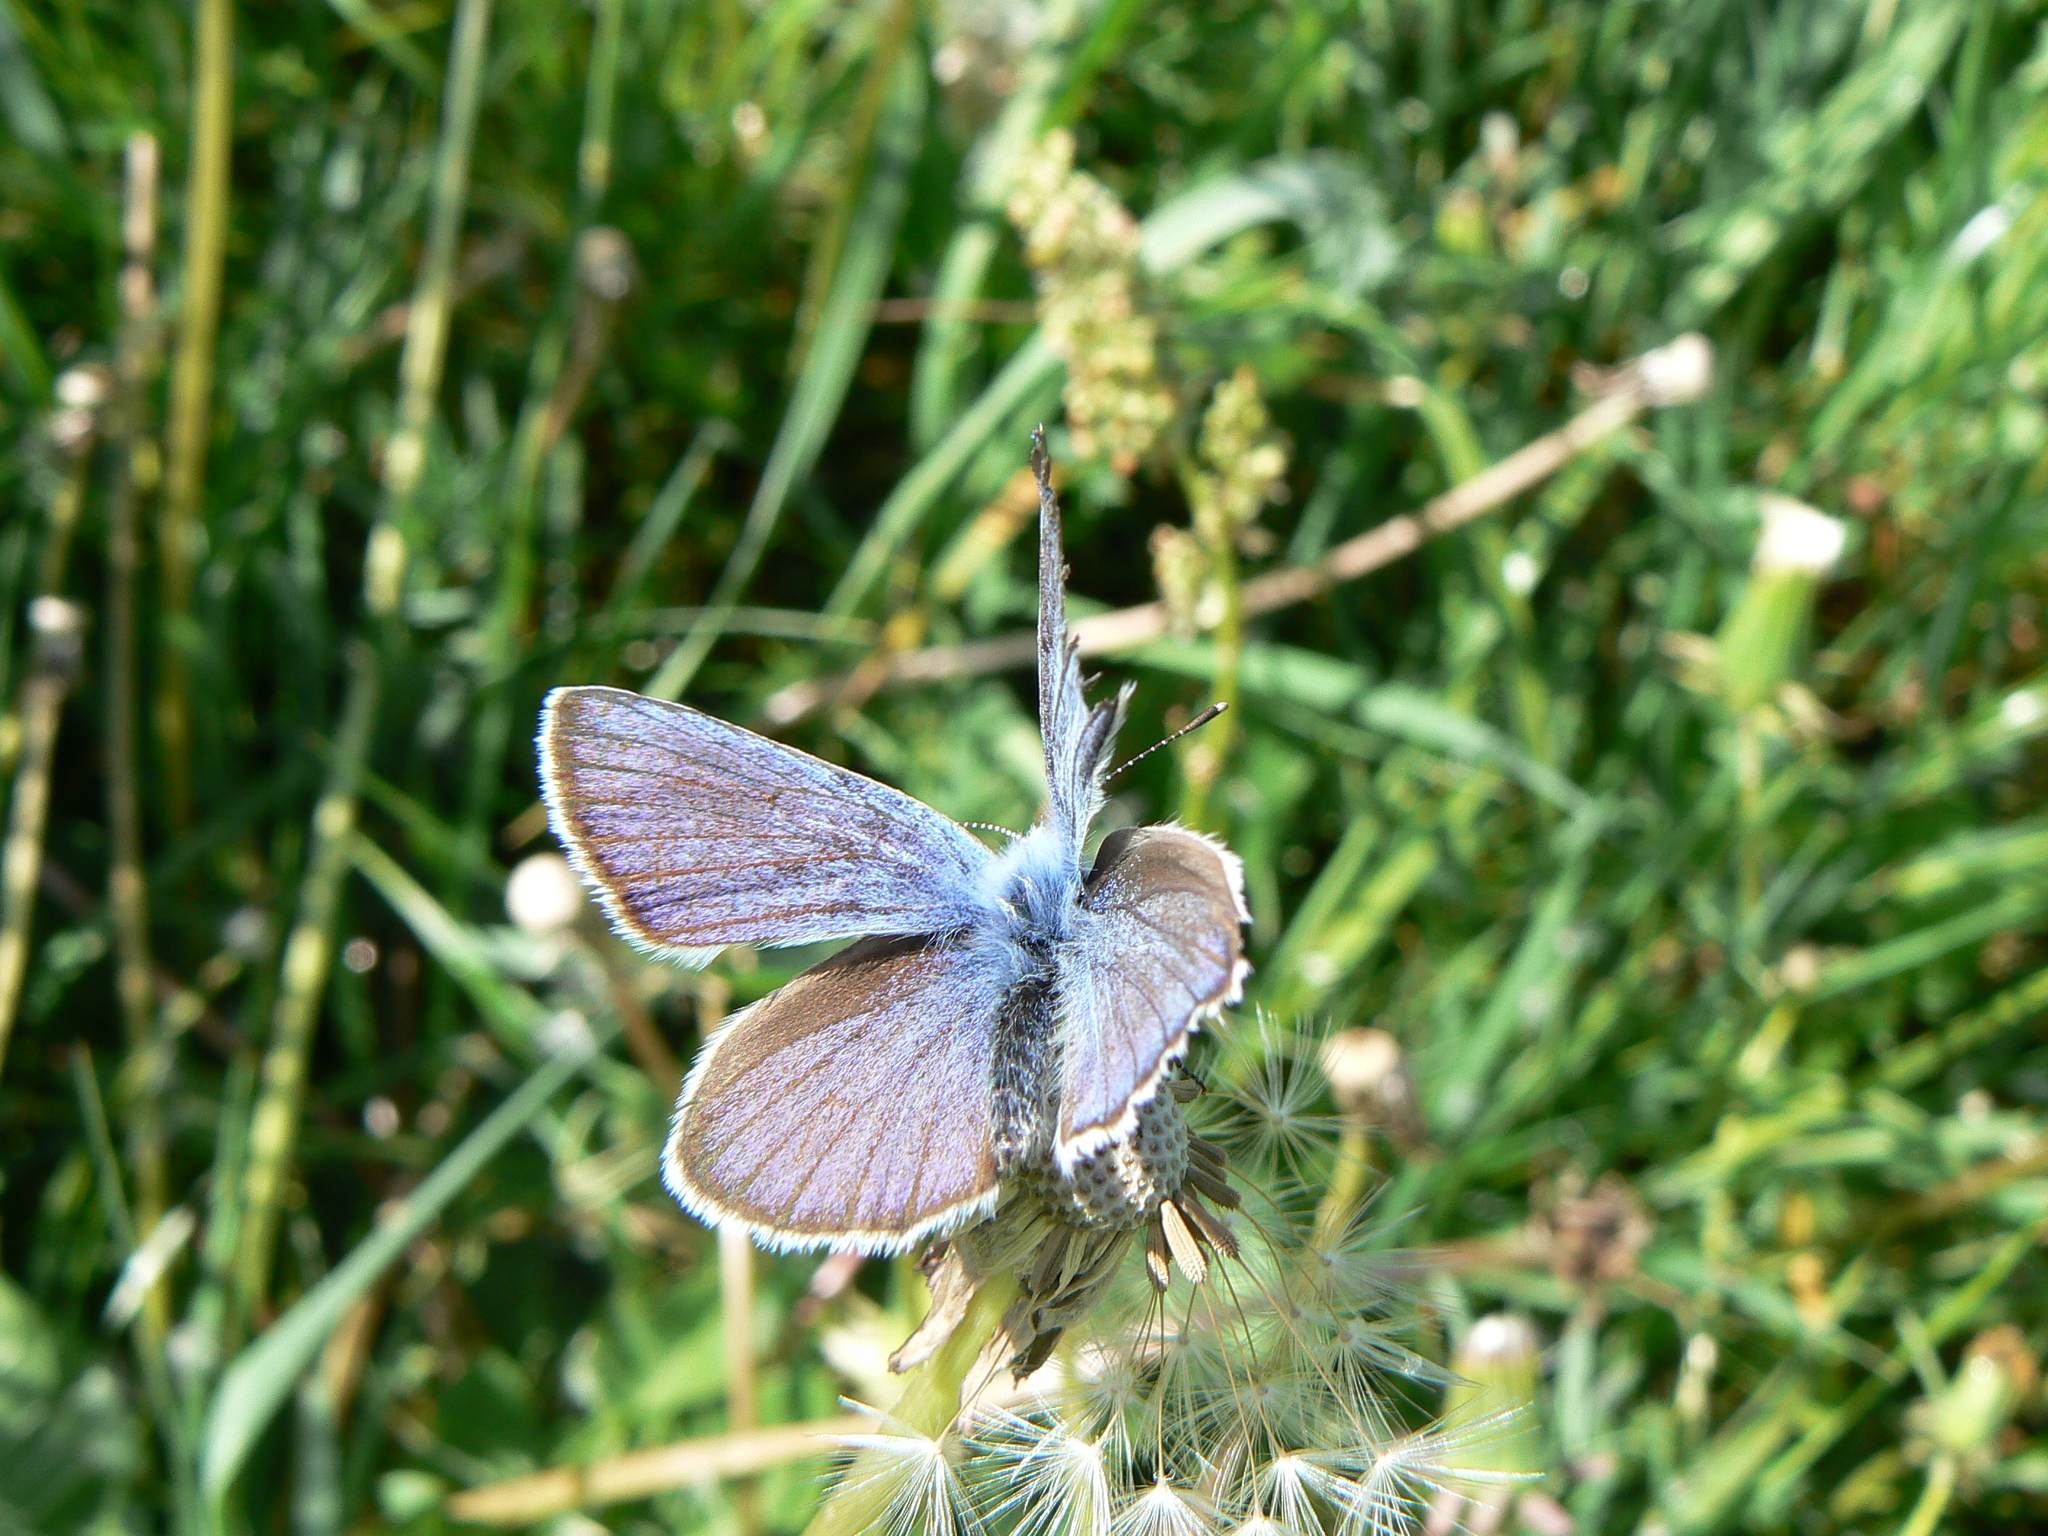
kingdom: Animalia
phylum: Arthropoda
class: Insecta
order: Lepidoptera
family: Lycaenidae
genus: Cyaniris
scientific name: Cyaniris semiargus
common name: Mazarine blue
